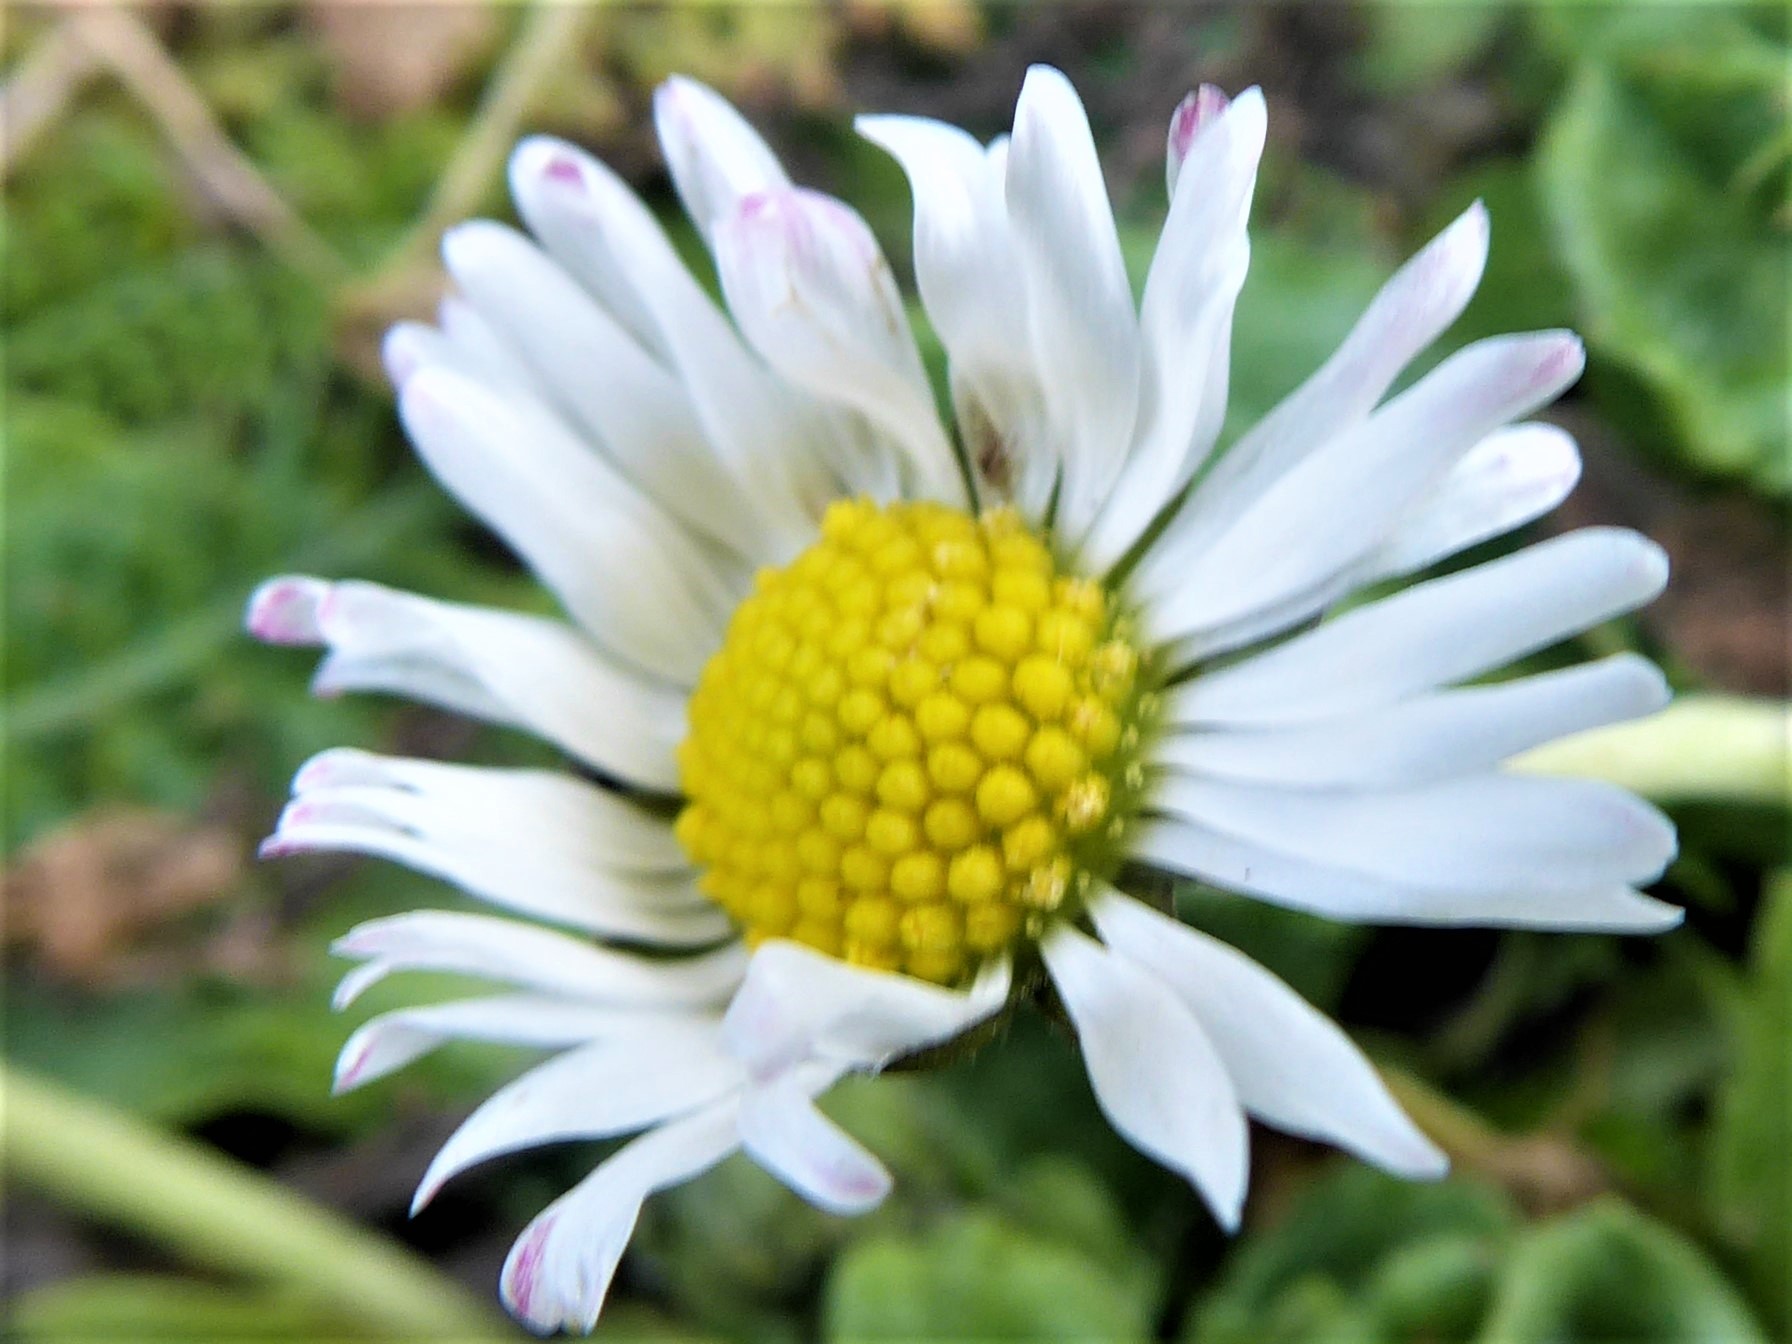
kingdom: Plantae
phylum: Tracheophyta
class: Magnoliopsida
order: Asterales
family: Asteraceae
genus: Bellis
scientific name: Bellis perennis
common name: Lawndaisy
